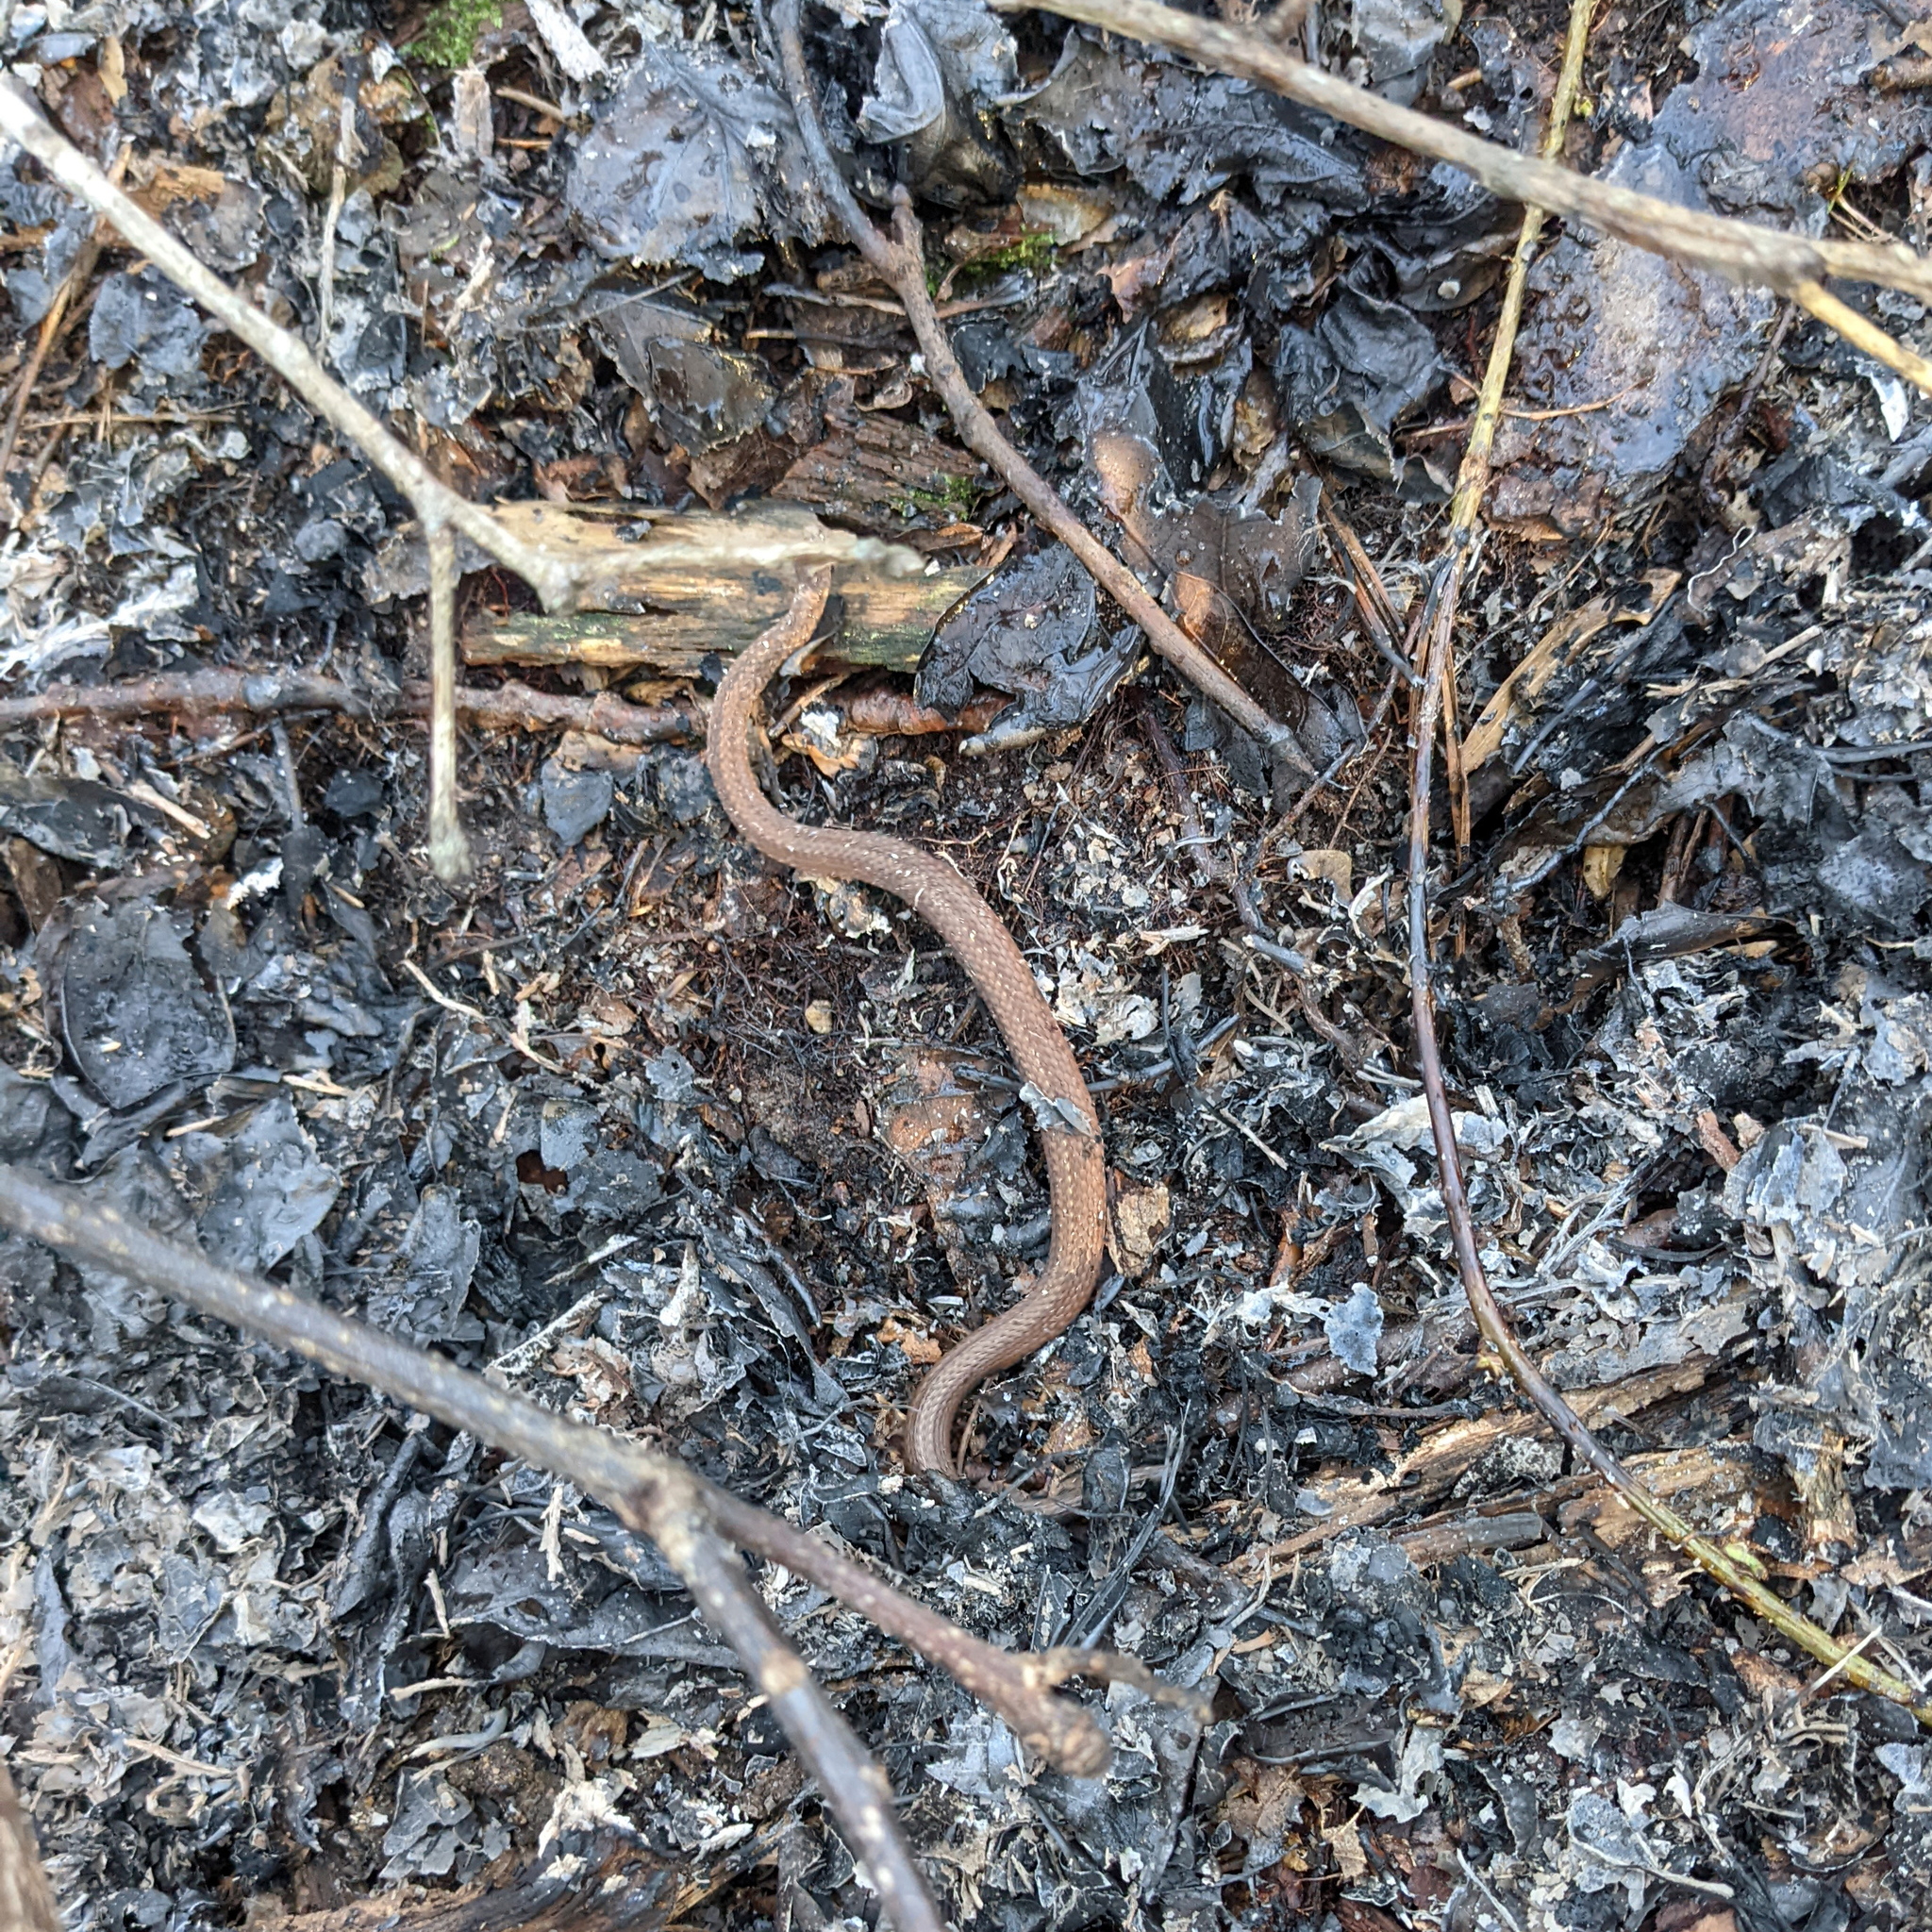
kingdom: Animalia
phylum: Chordata
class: Squamata
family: Colubridae
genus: Storeria
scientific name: Storeria occipitomaculata
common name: Redbelly snake
